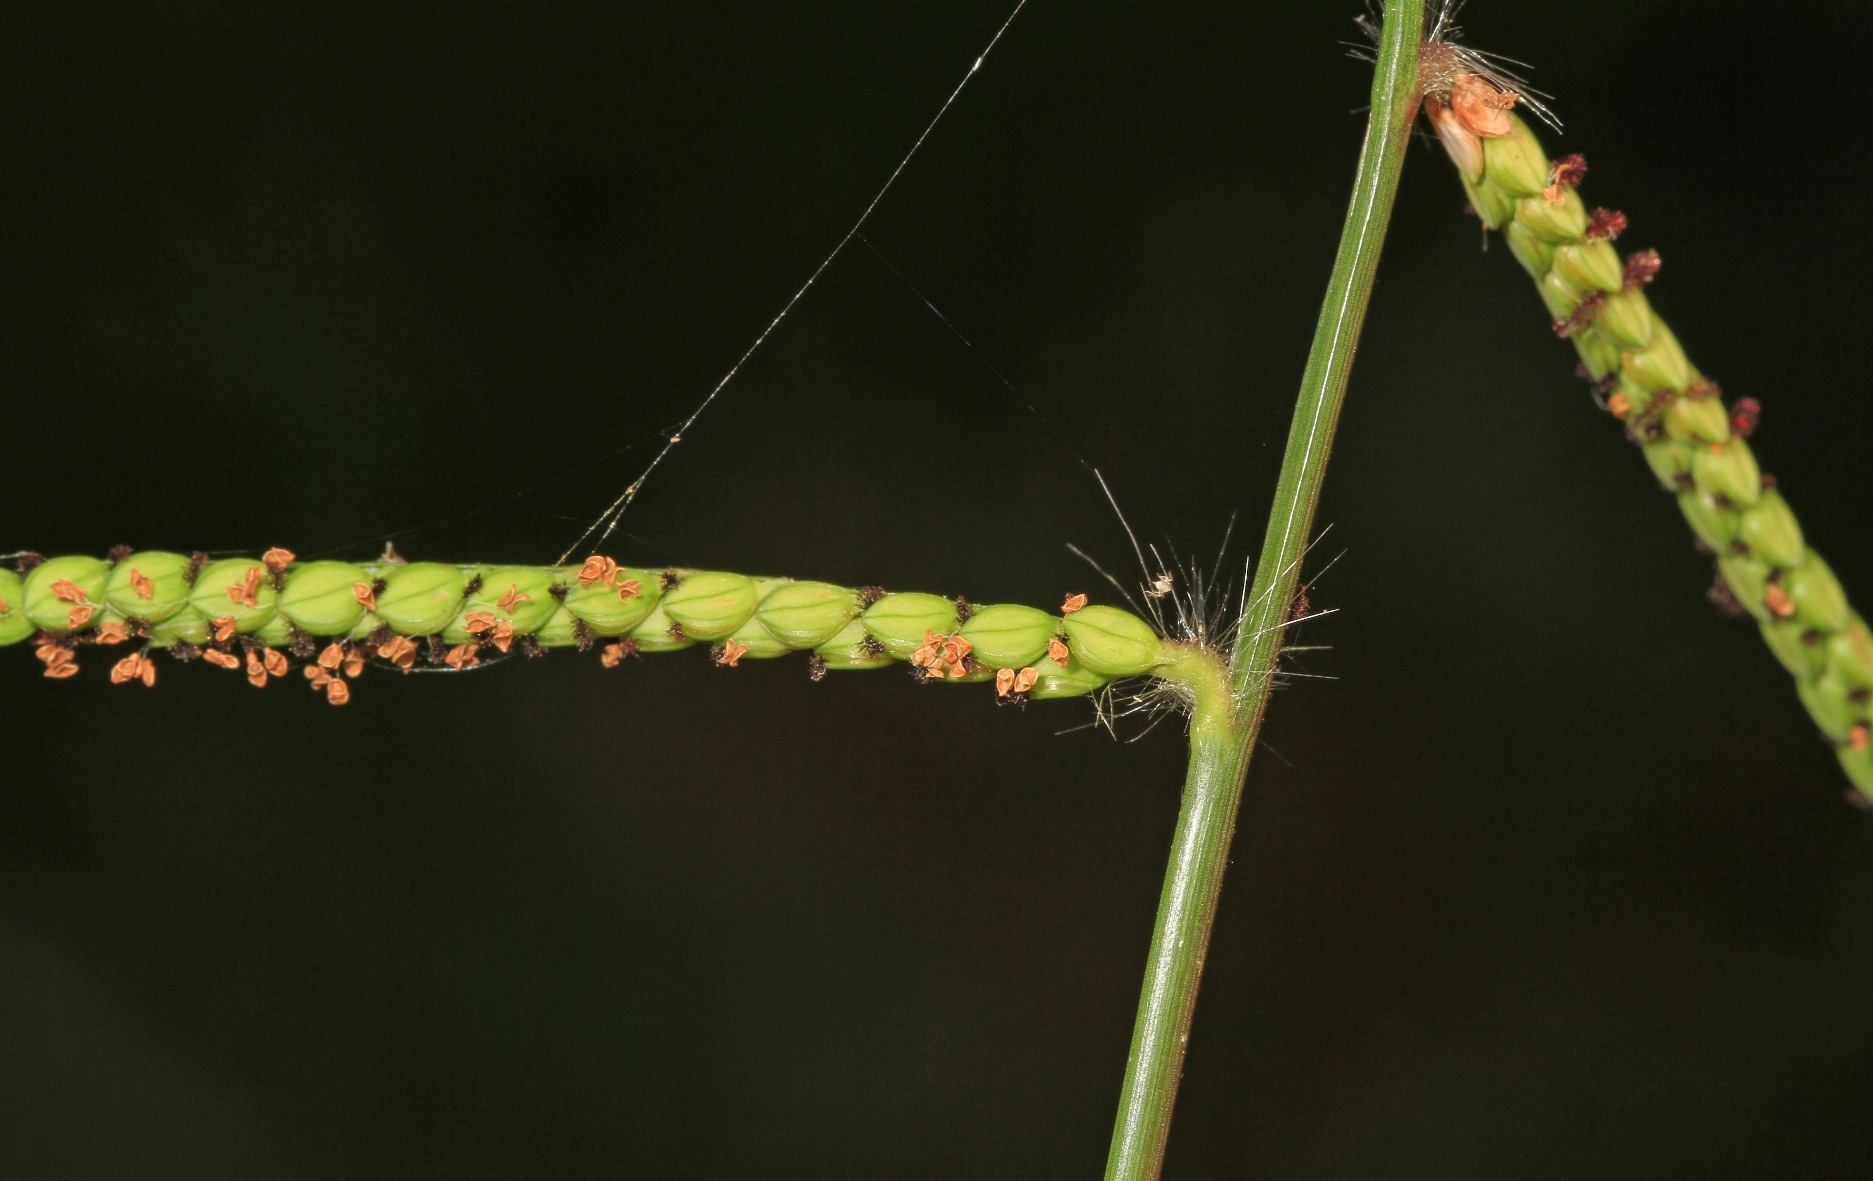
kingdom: Plantae
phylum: Tracheophyta
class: Liliopsida
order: Poales
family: Poaceae
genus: Paspalum
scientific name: Paspalum dilatatum
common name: Dallisgrass
